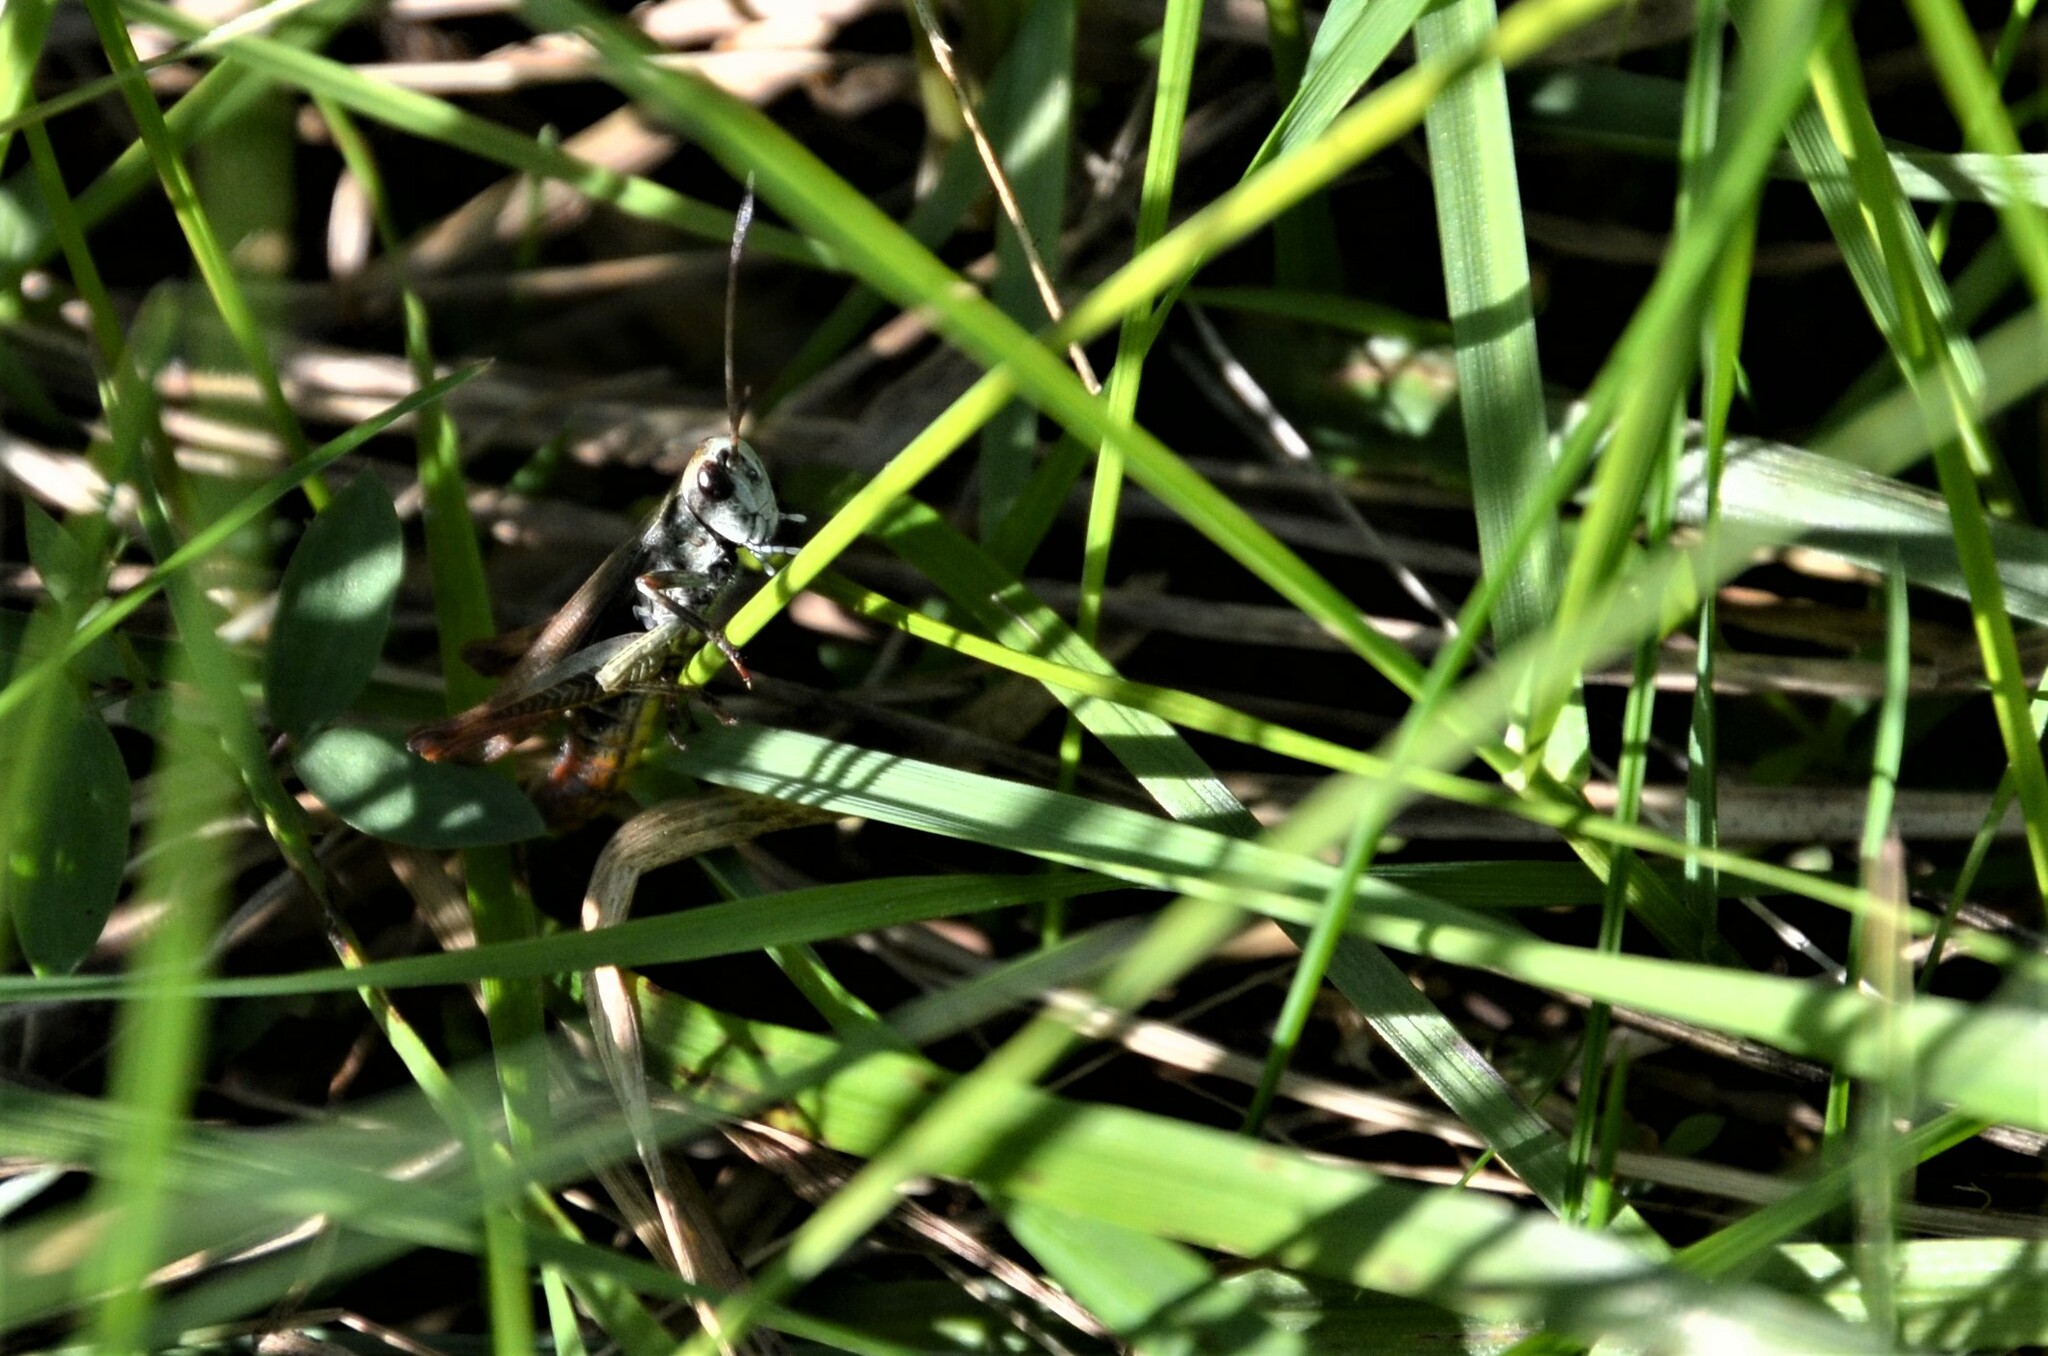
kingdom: Animalia
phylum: Arthropoda
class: Insecta
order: Orthoptera
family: Acrididae
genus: Gomphocerippus
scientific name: Gomphocerippus rufus
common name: Rufous grasshopper
